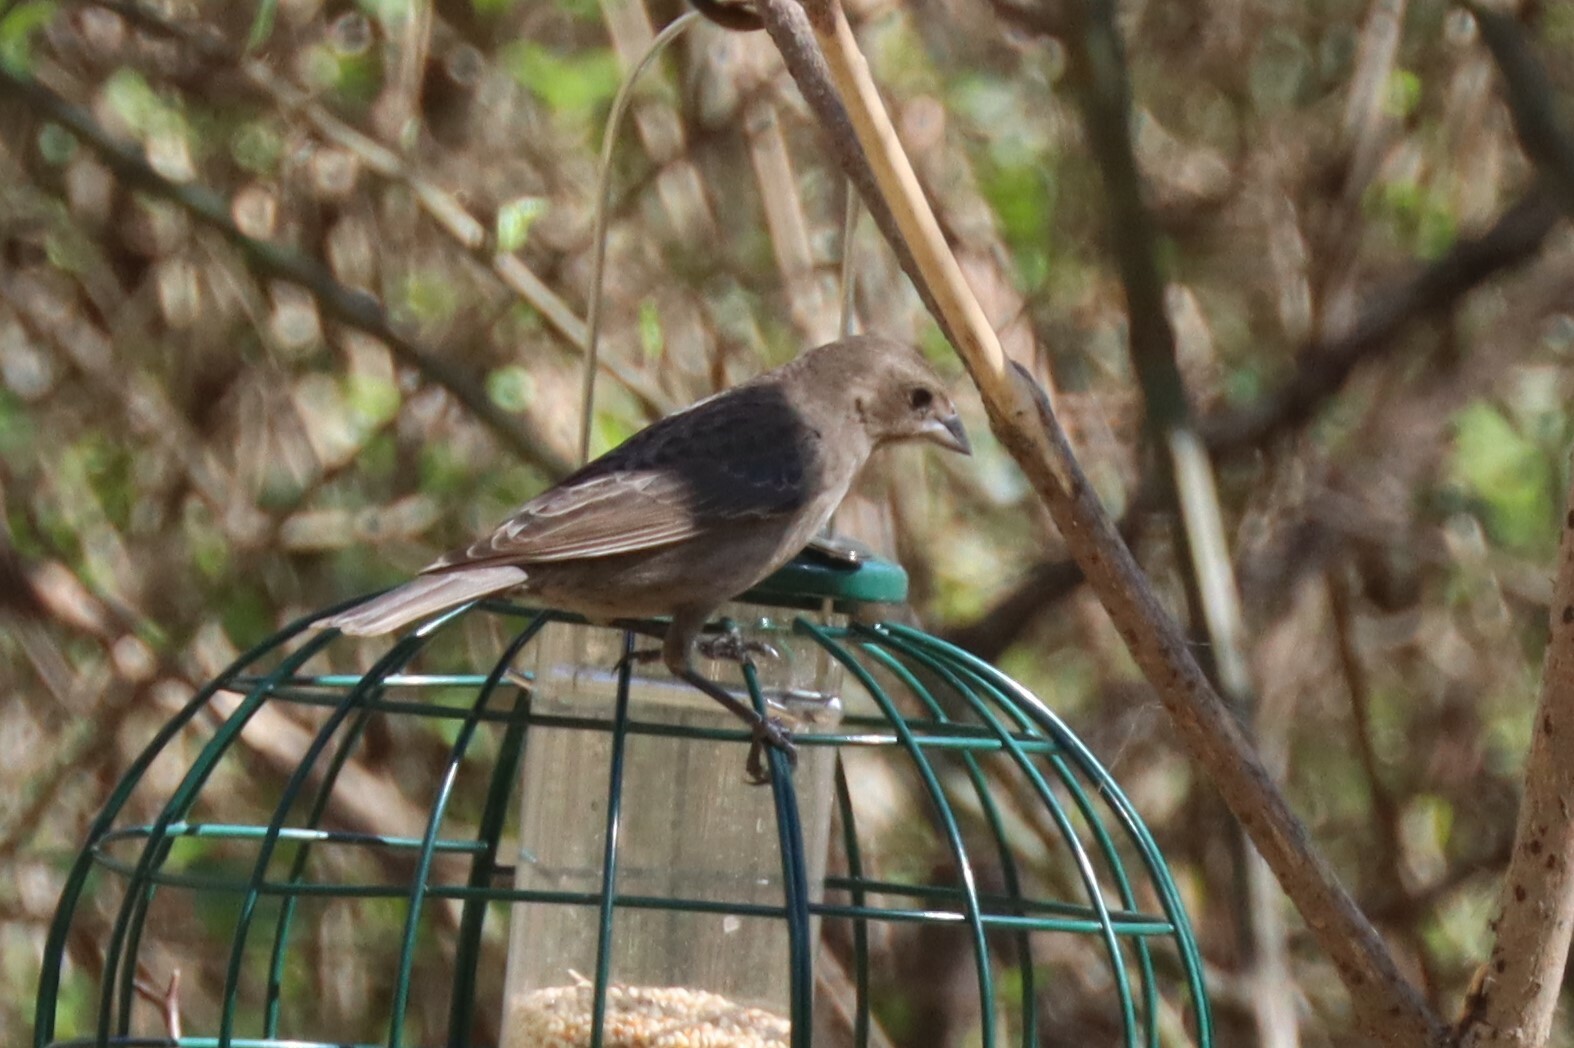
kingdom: Animalia
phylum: Chordata
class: Aves
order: Passeriformes
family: Icteridae
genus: Molothrus
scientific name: Molothrus ater
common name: Brown-headed cowbird
